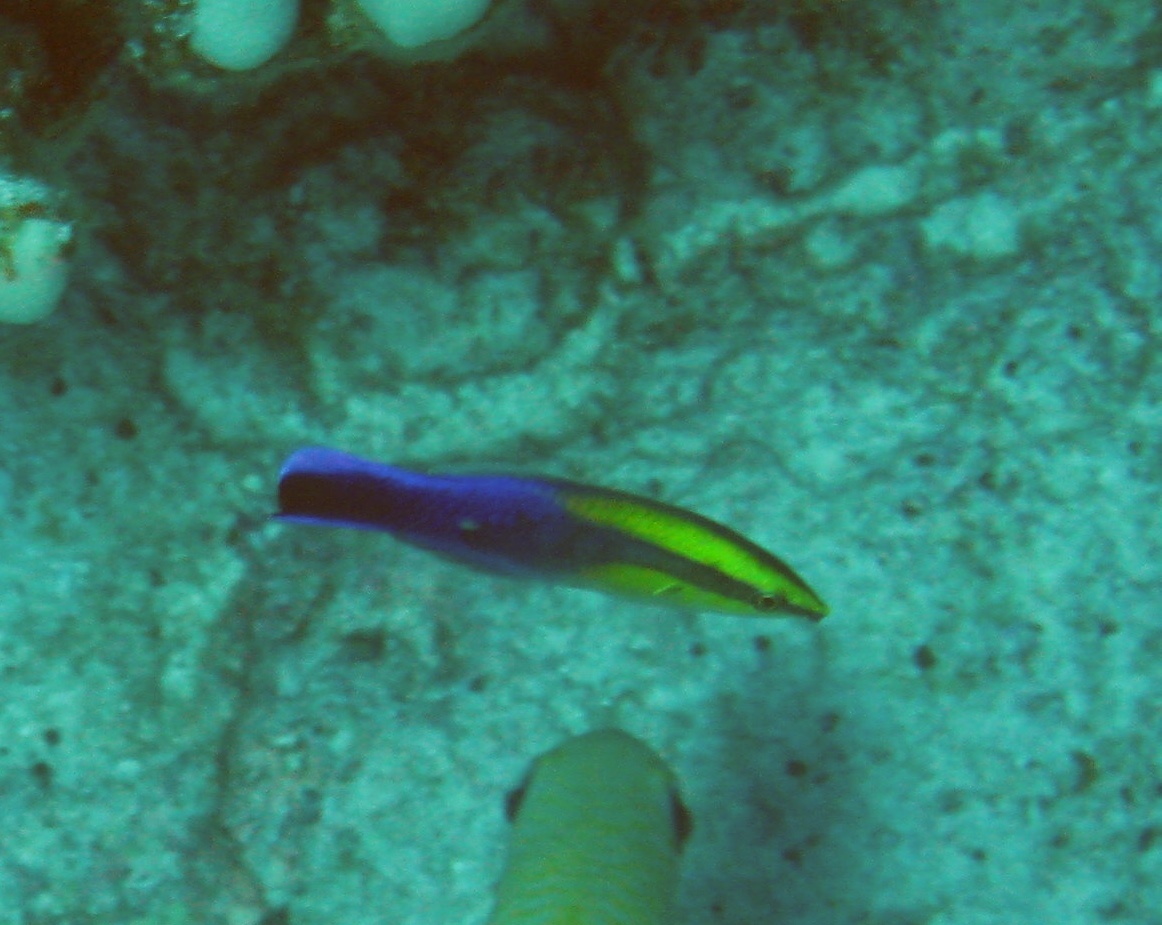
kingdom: Animalia
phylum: Chordata
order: Perciformes
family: Labridae
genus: Labroides
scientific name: Labroides phthirophagus
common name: Cleaner wrasse
